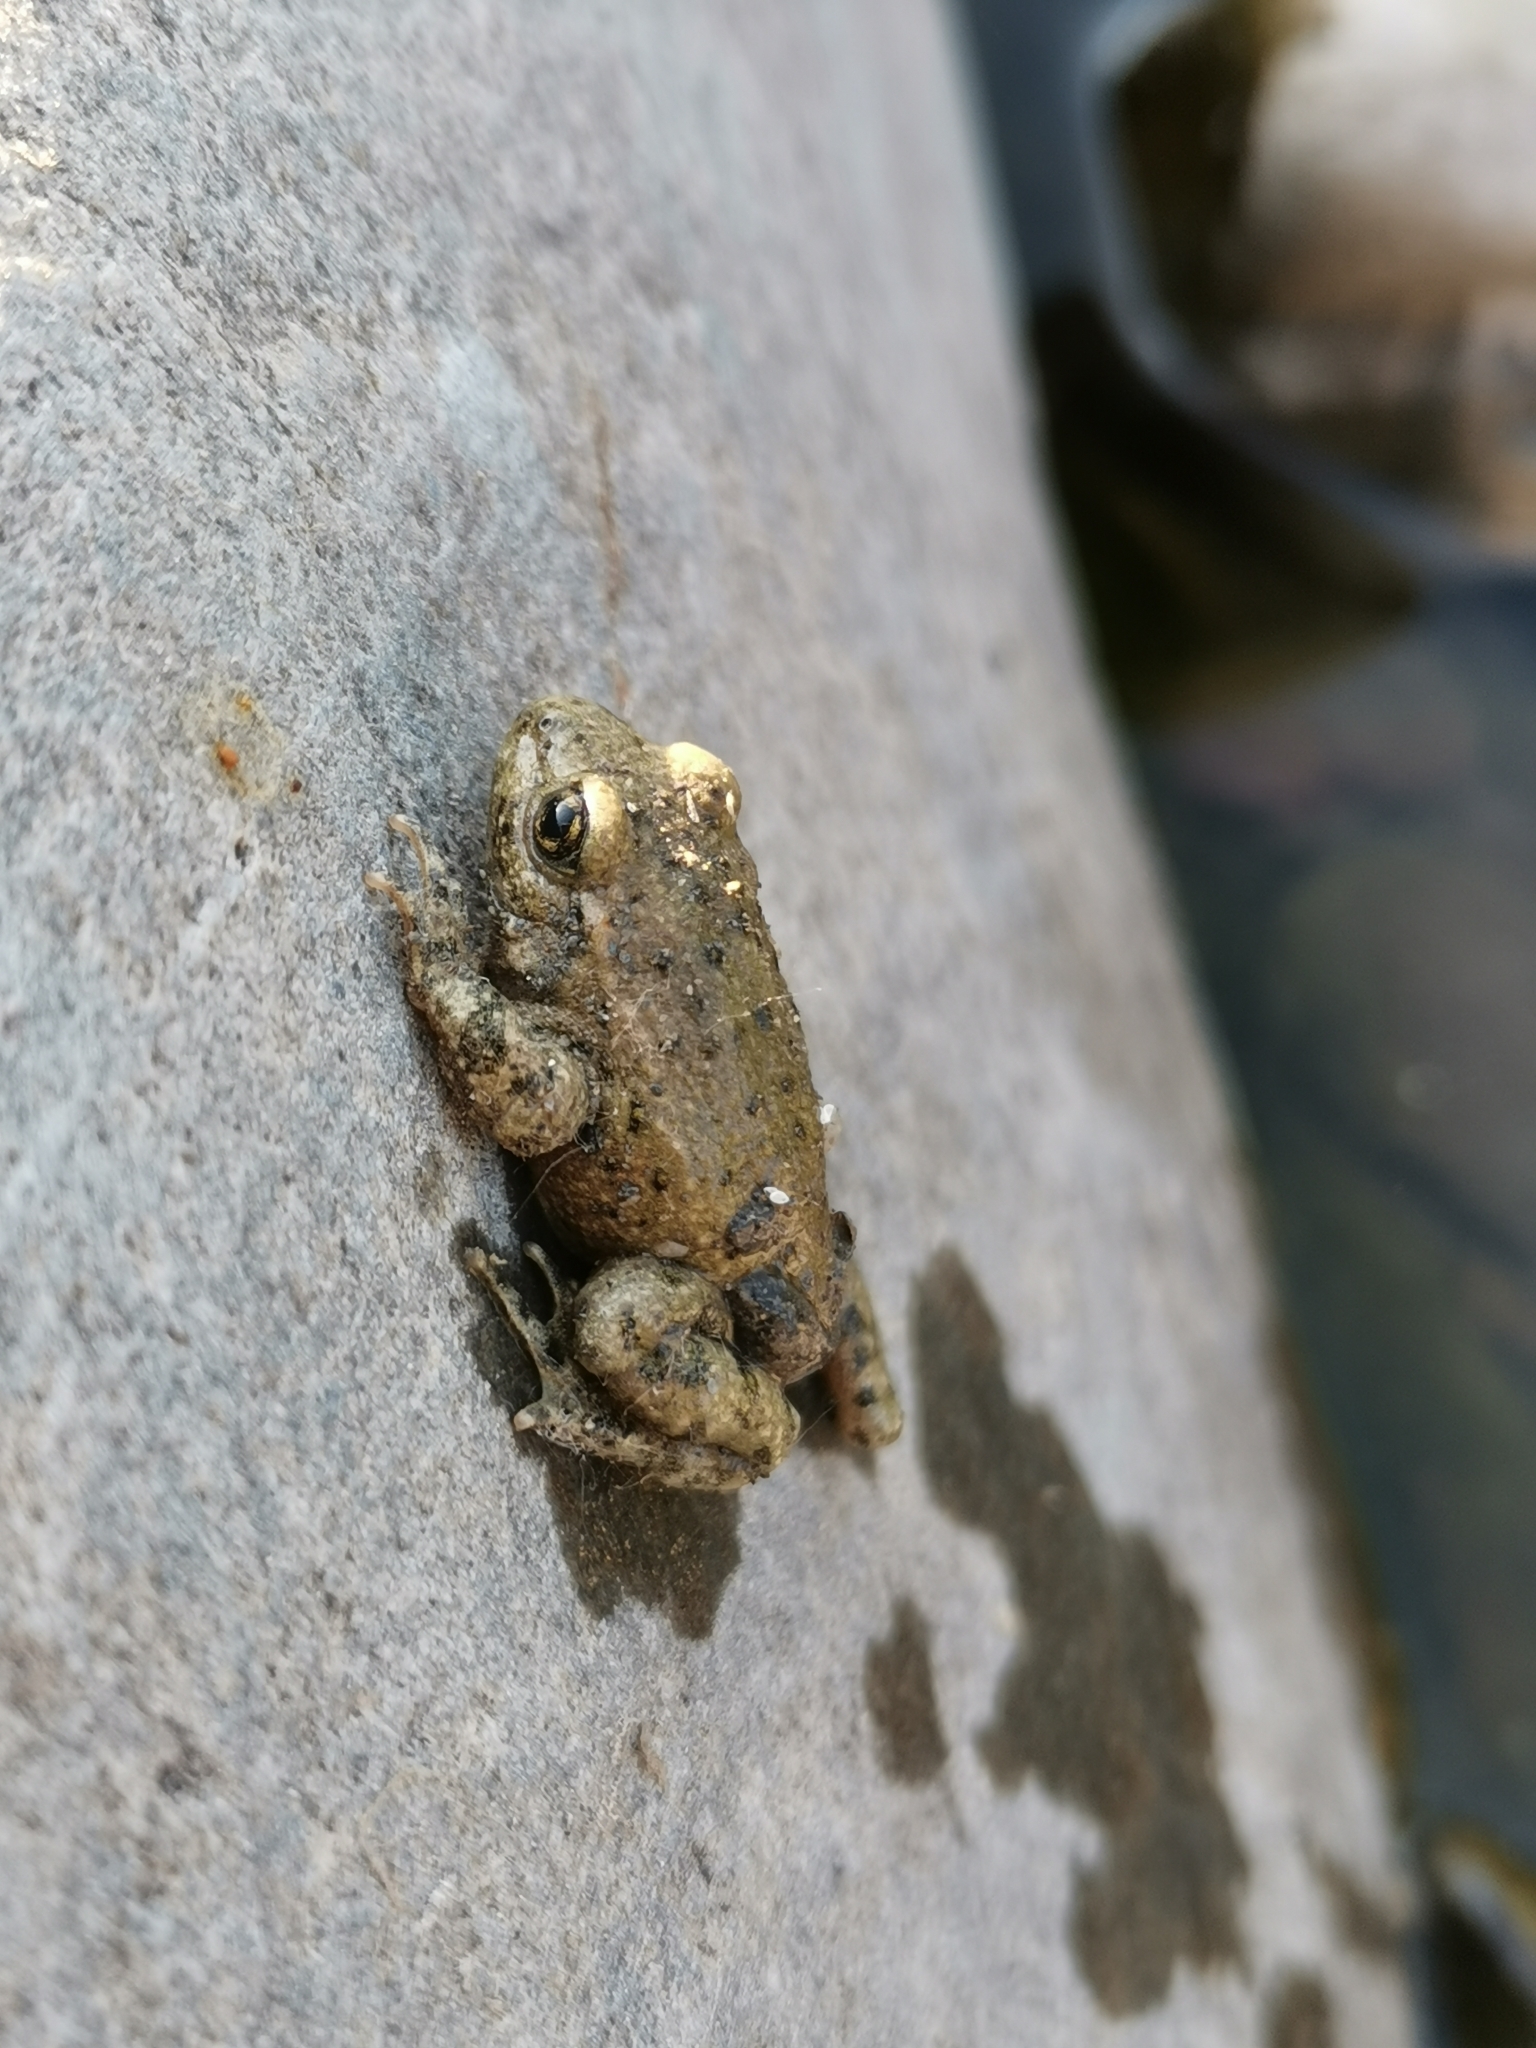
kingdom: Animalia
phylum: Chordata
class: Amphibia
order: Anura
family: Alytidae
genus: Alytes
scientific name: Alytes obstetricans
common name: Midwife toad
